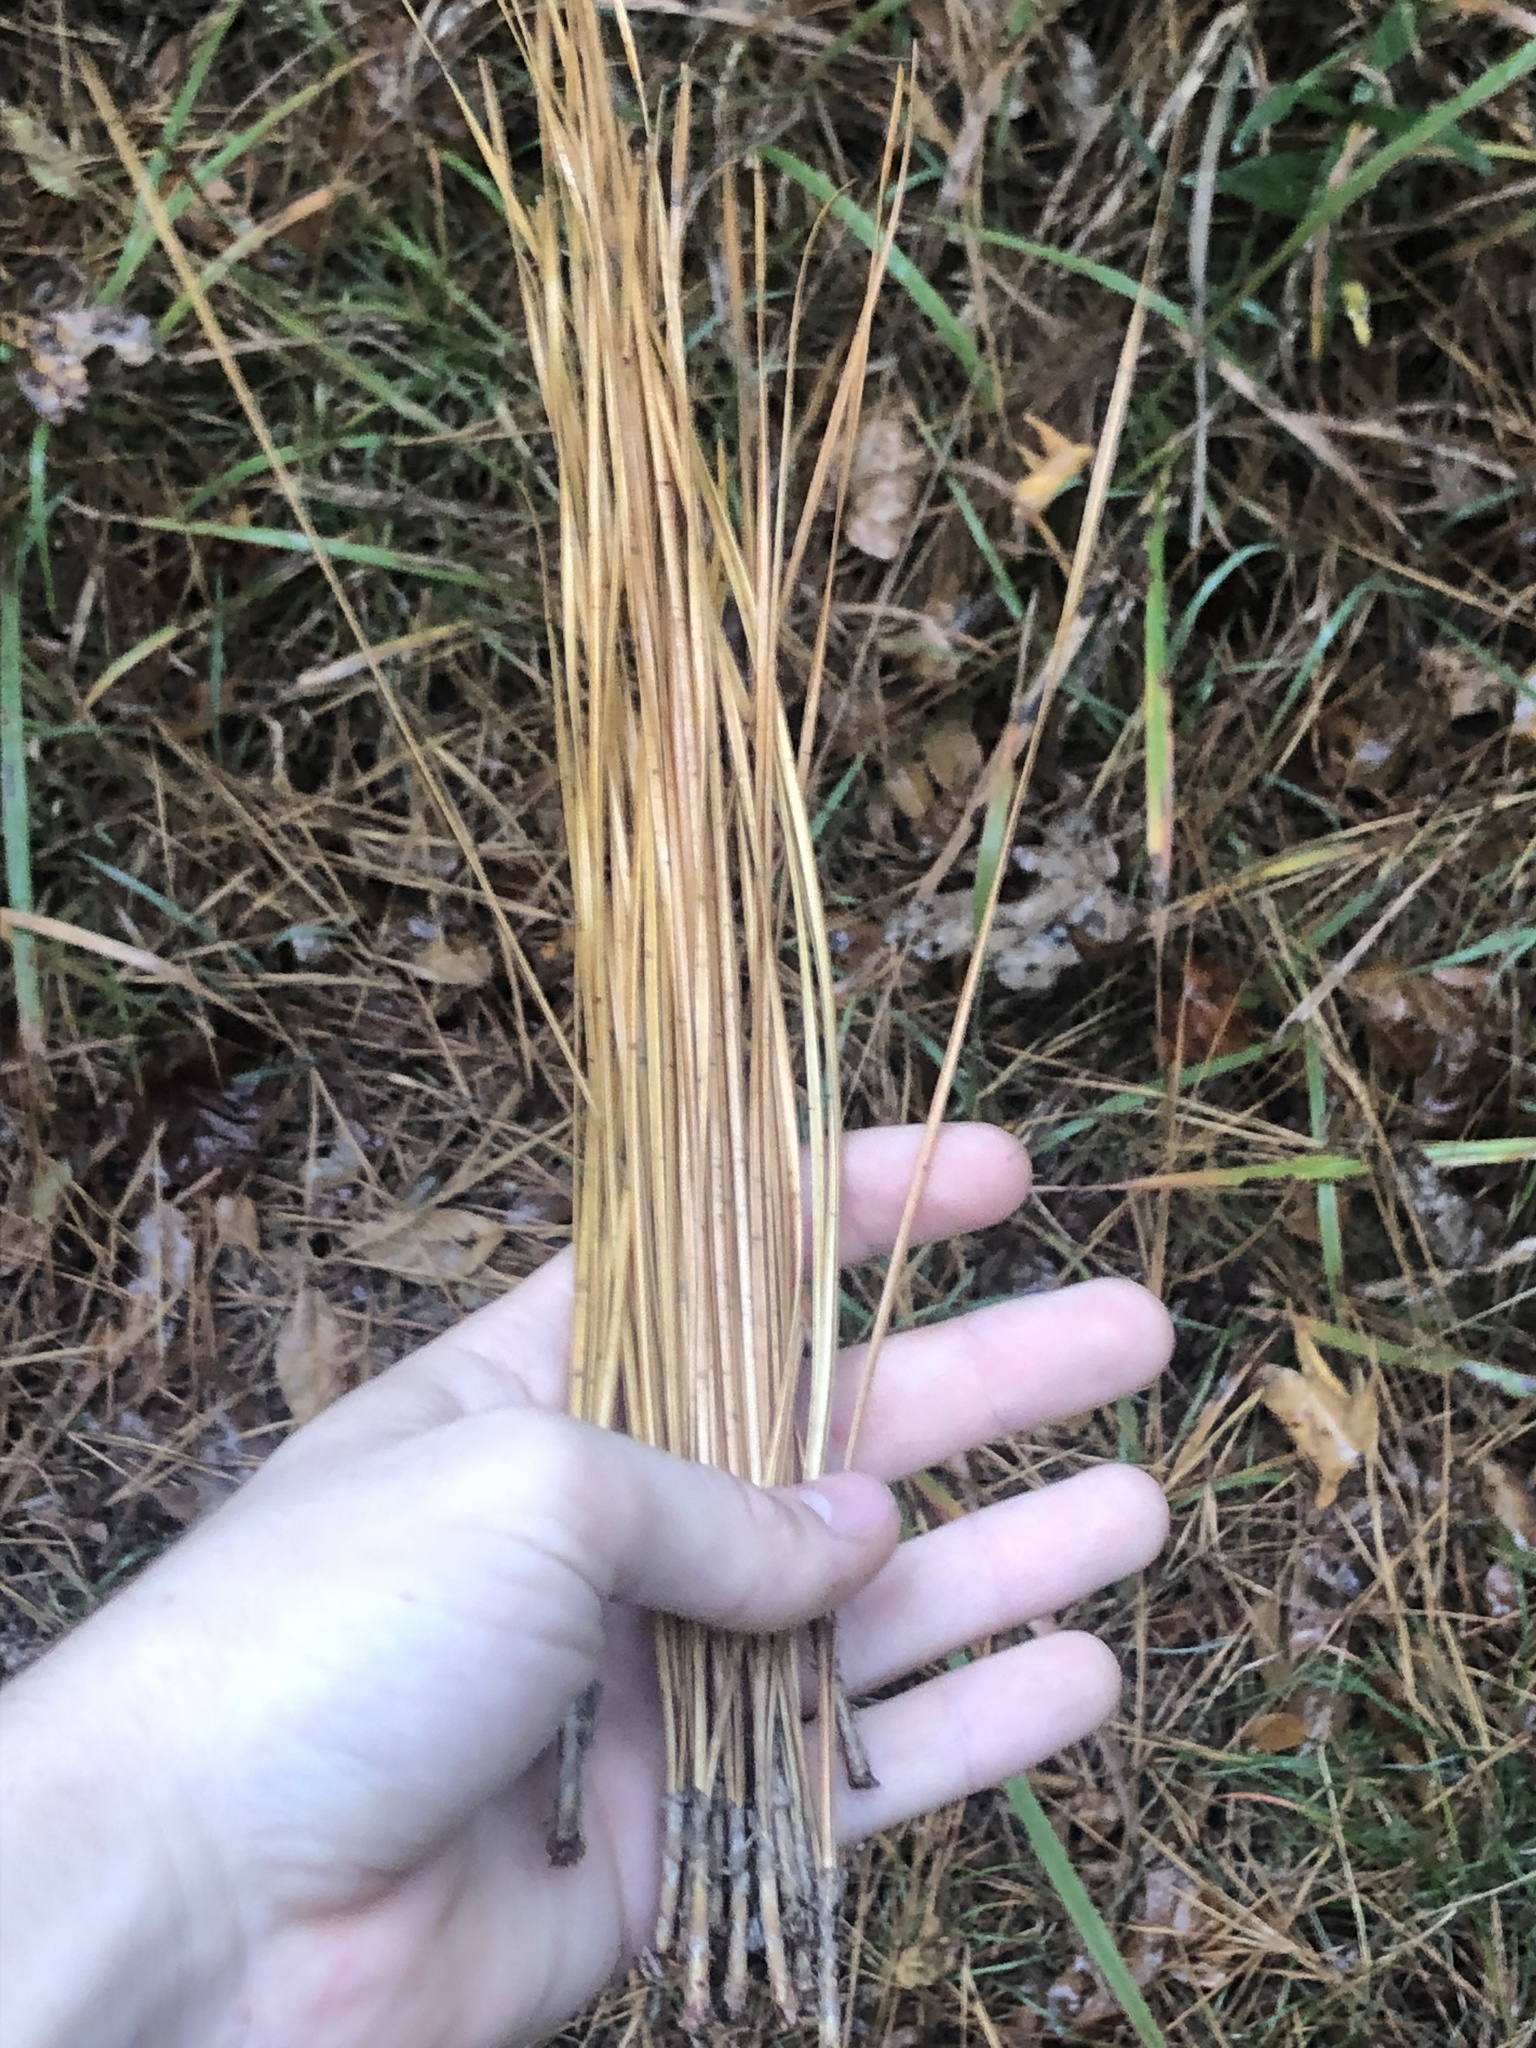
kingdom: Plantae
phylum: Tracheophyta
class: Pinopsida
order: Pinales
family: Pinaceae
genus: Pinus
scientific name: Pinus palustris
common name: Longleaf pine
